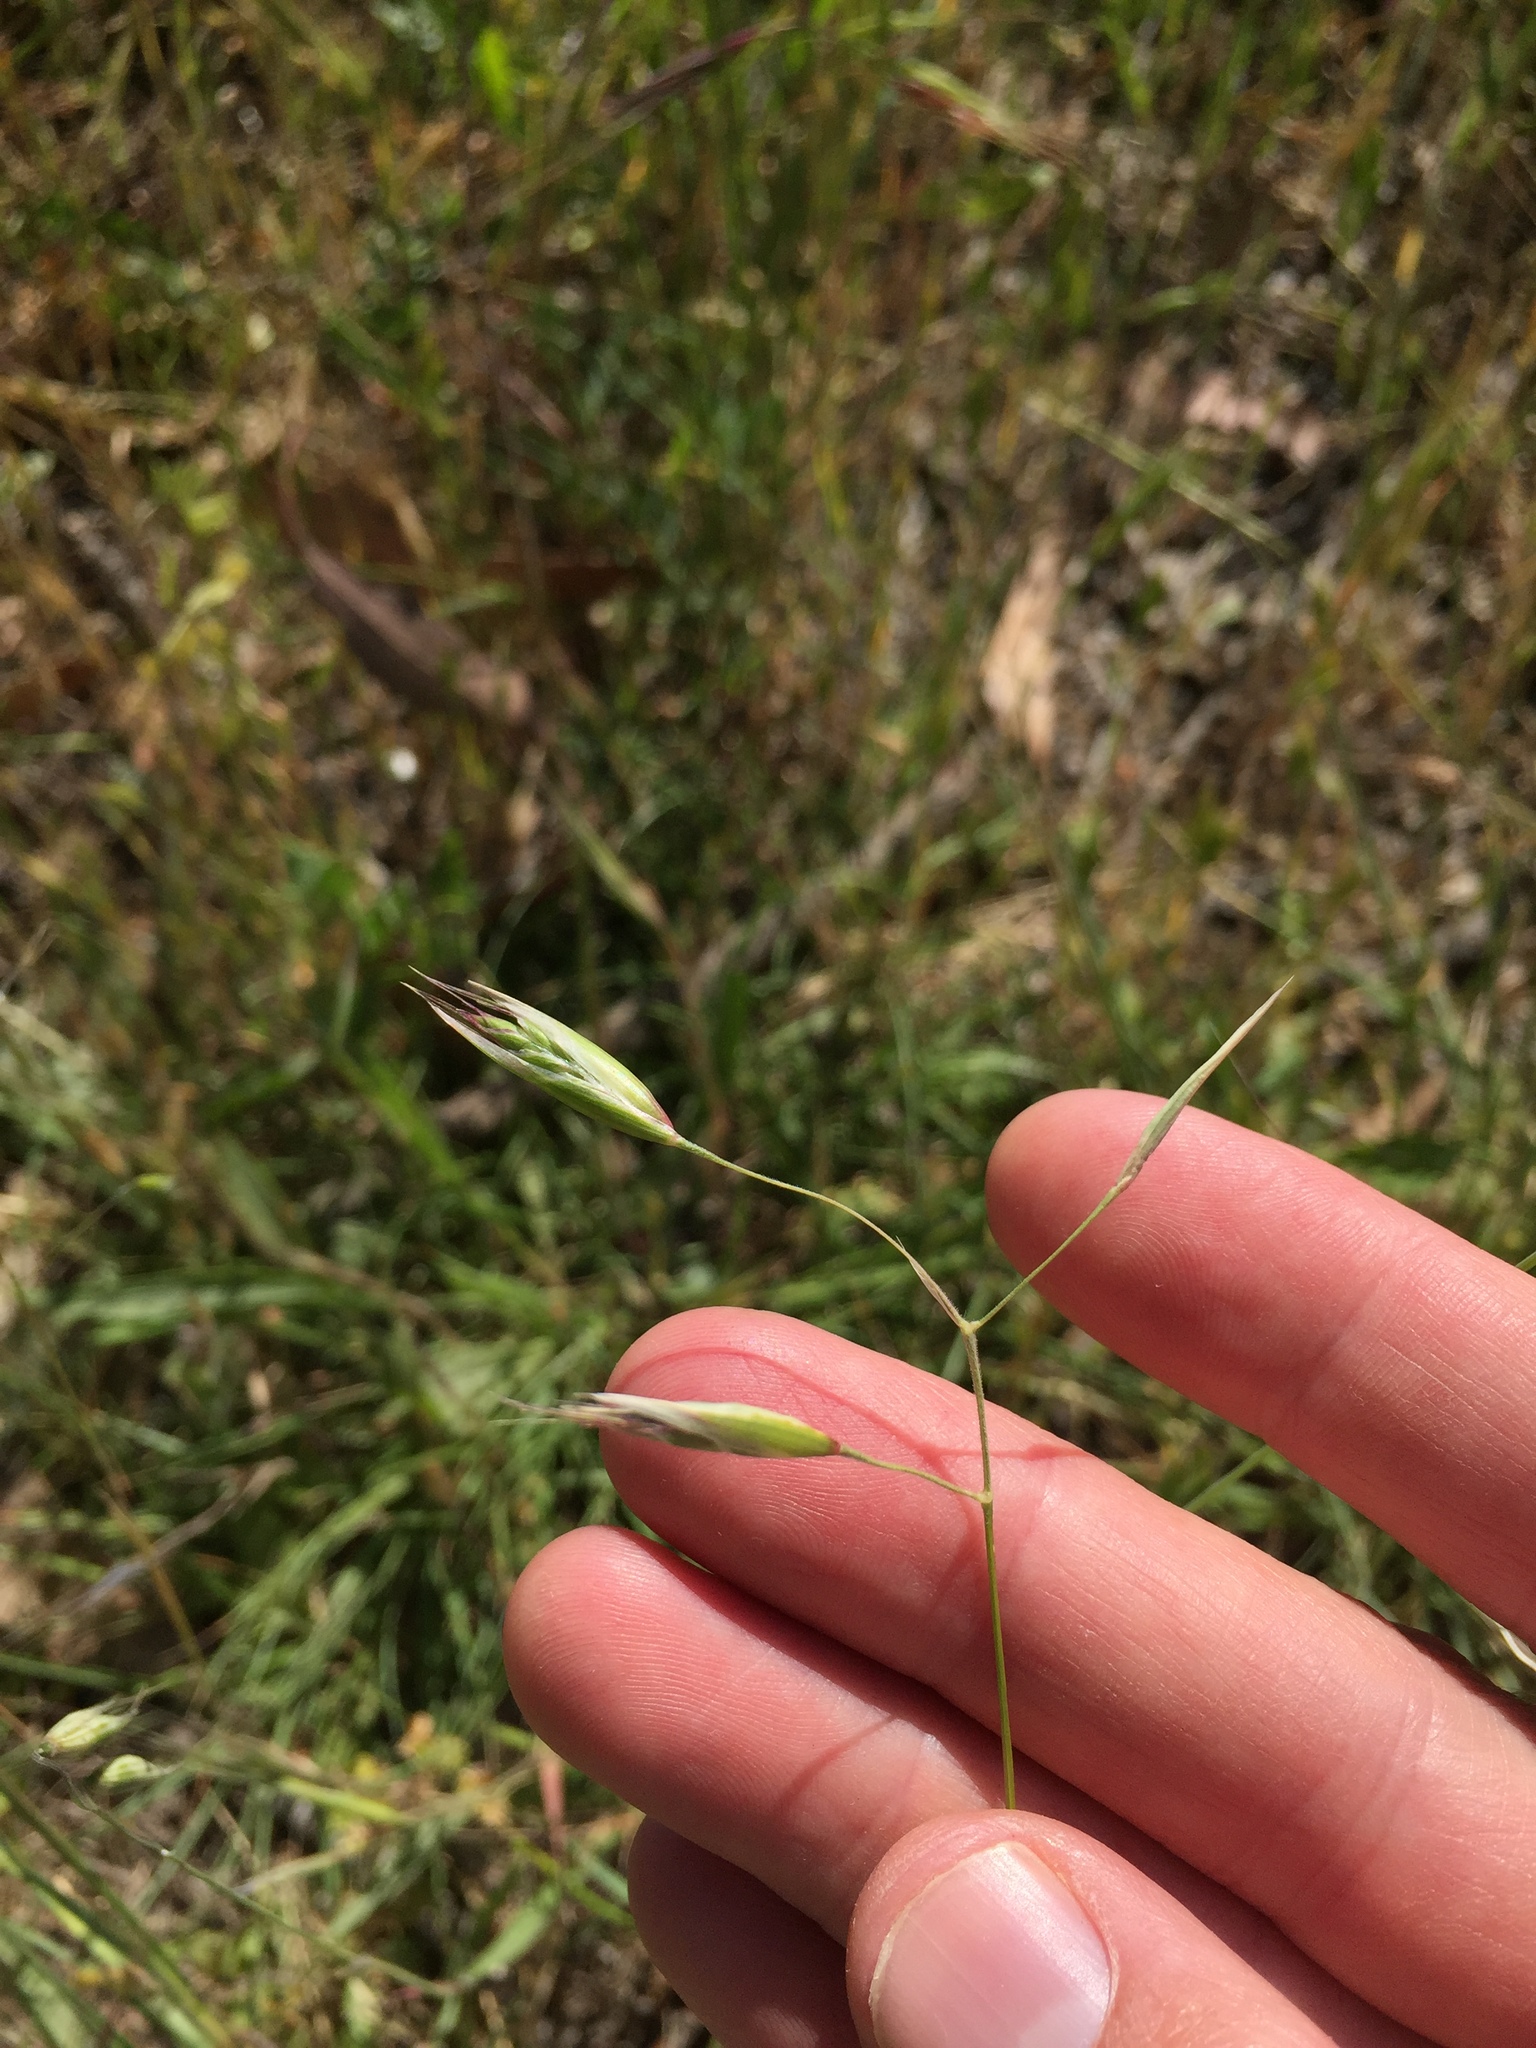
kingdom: Plantae
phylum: Tracheophyta
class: Liliopsida
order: Poales
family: Poaceae
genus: Danthonia
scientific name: Danthonia californica
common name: California oat grass
